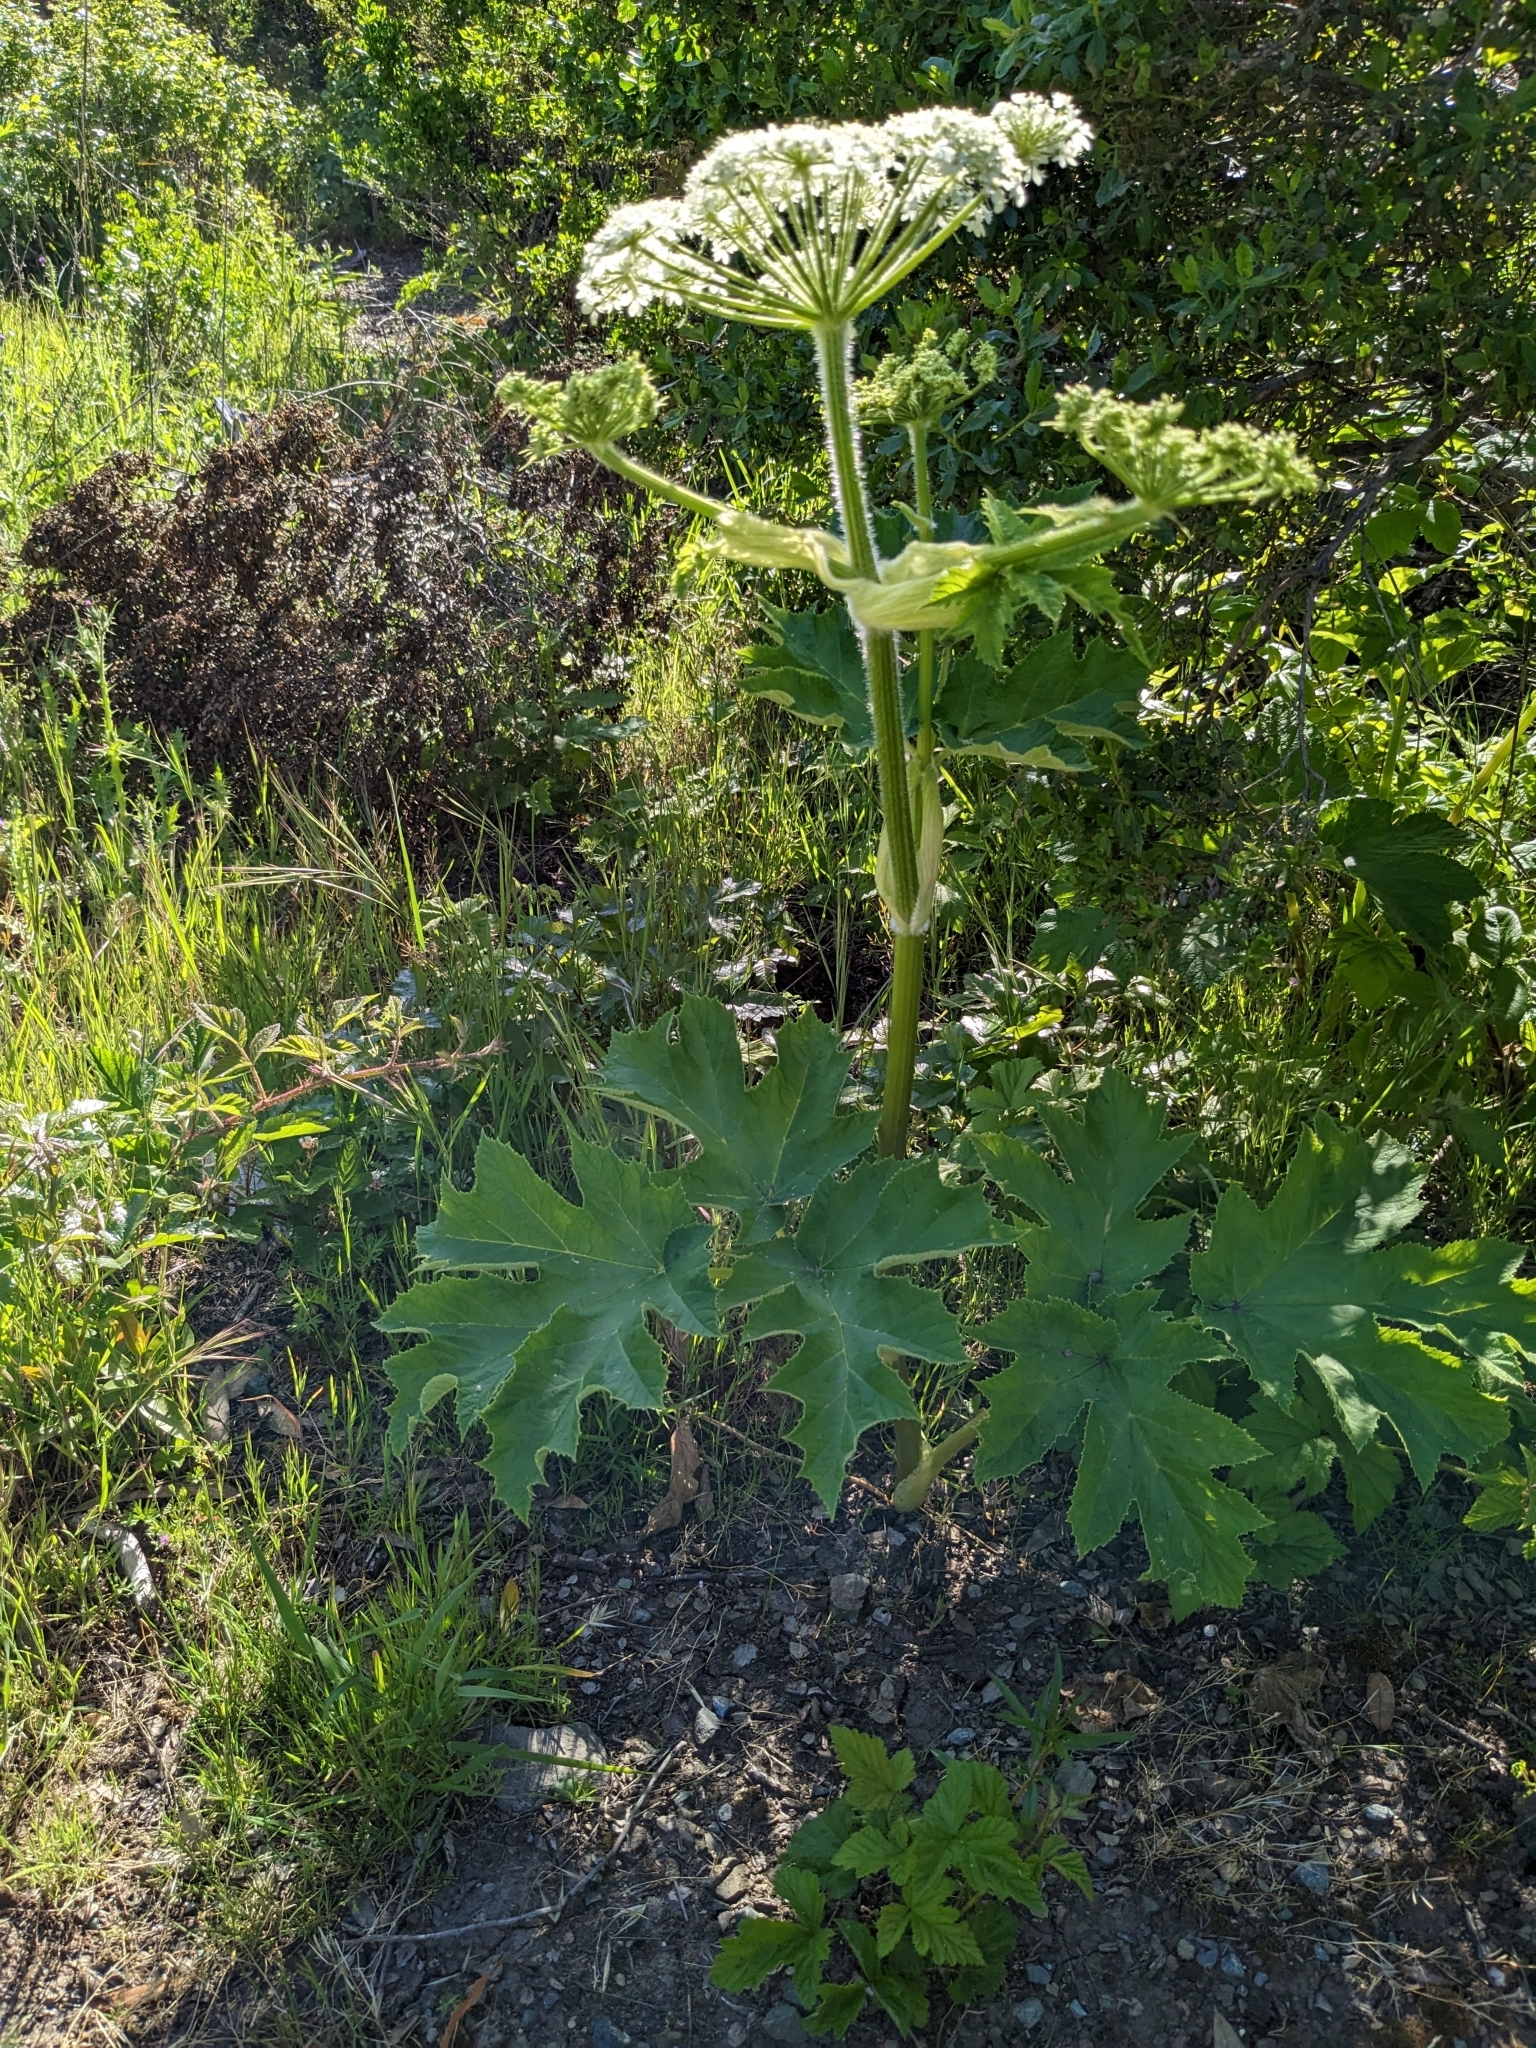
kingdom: Plantae
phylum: Tracheophyta
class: Magnoliopsida
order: Apiales
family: Apiaceae
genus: Heracleum
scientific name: Heracleum maximum
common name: American cow parsnip
